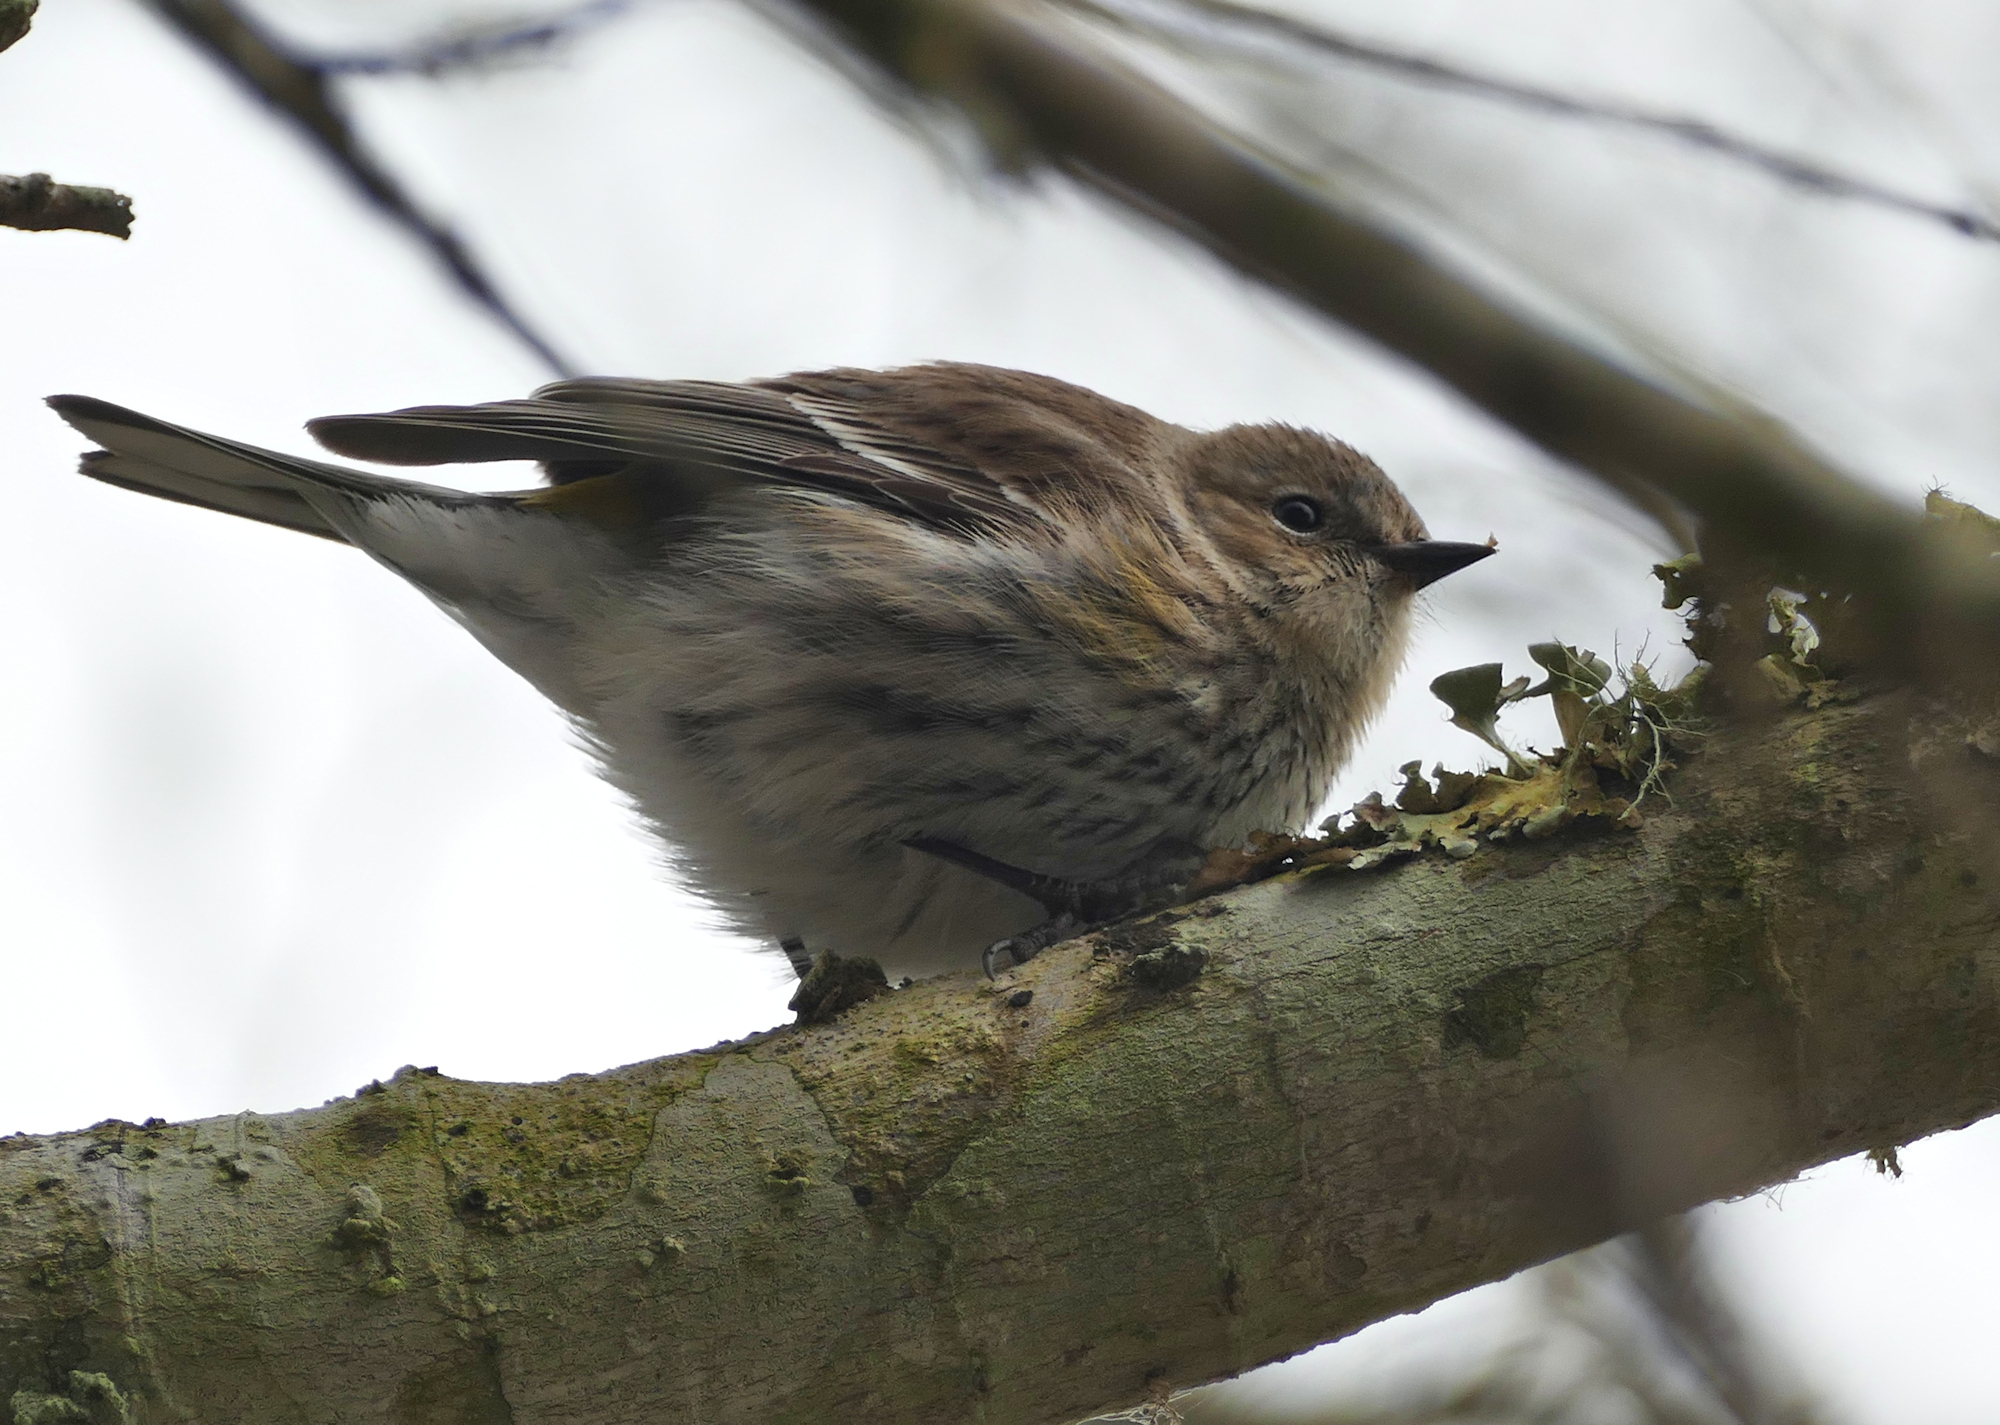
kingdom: Animalia
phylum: Chordata
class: Aves
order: Passeriformes
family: Parulidae
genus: Setophaga
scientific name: Setophaga coronata
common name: Myrtle warbler
